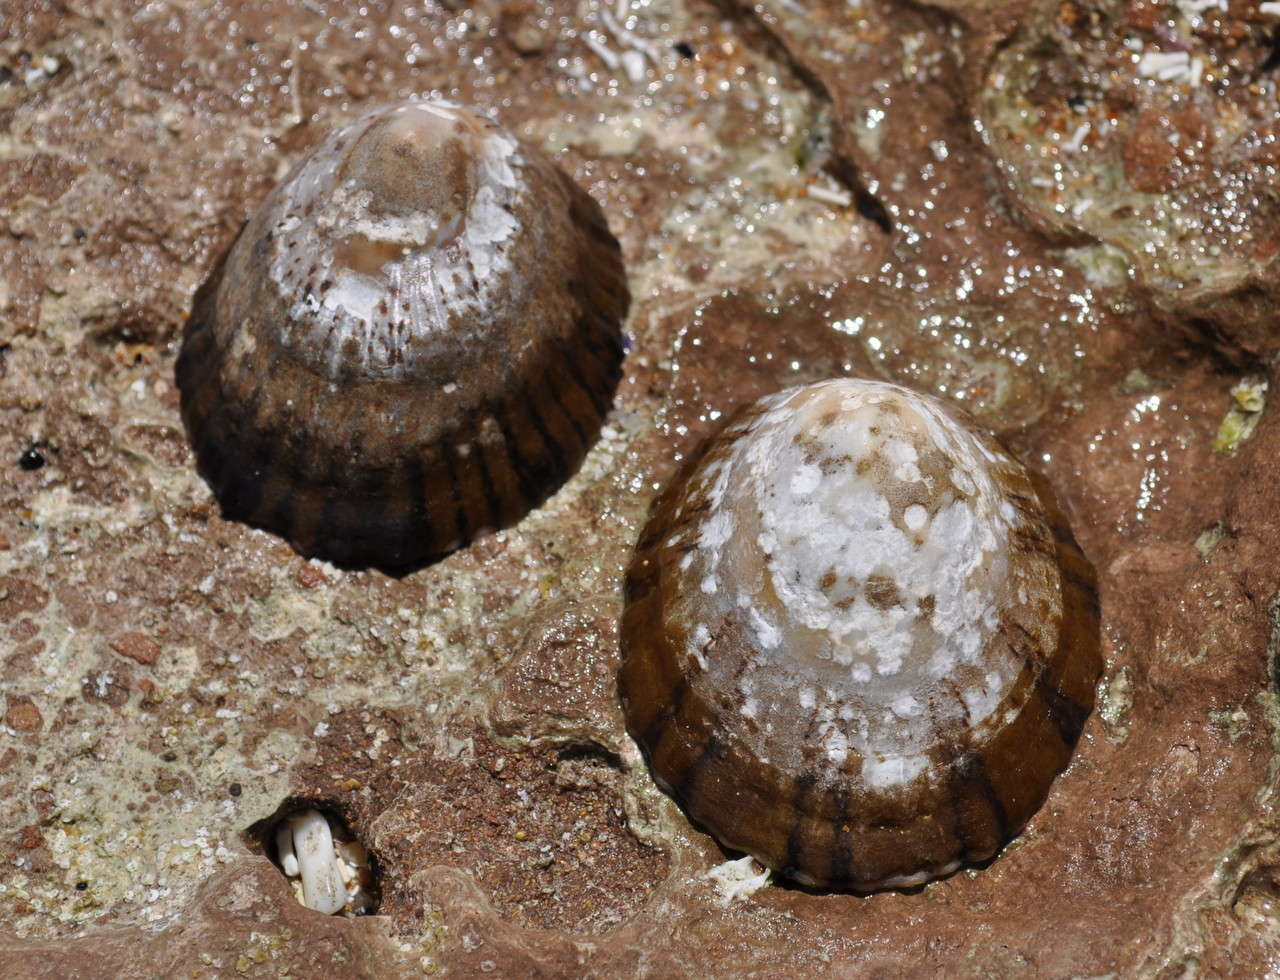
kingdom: Animalia
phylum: Mollusca
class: Gastropoda
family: Nacellidae
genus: Cellana
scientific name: Cellana tramoserica
